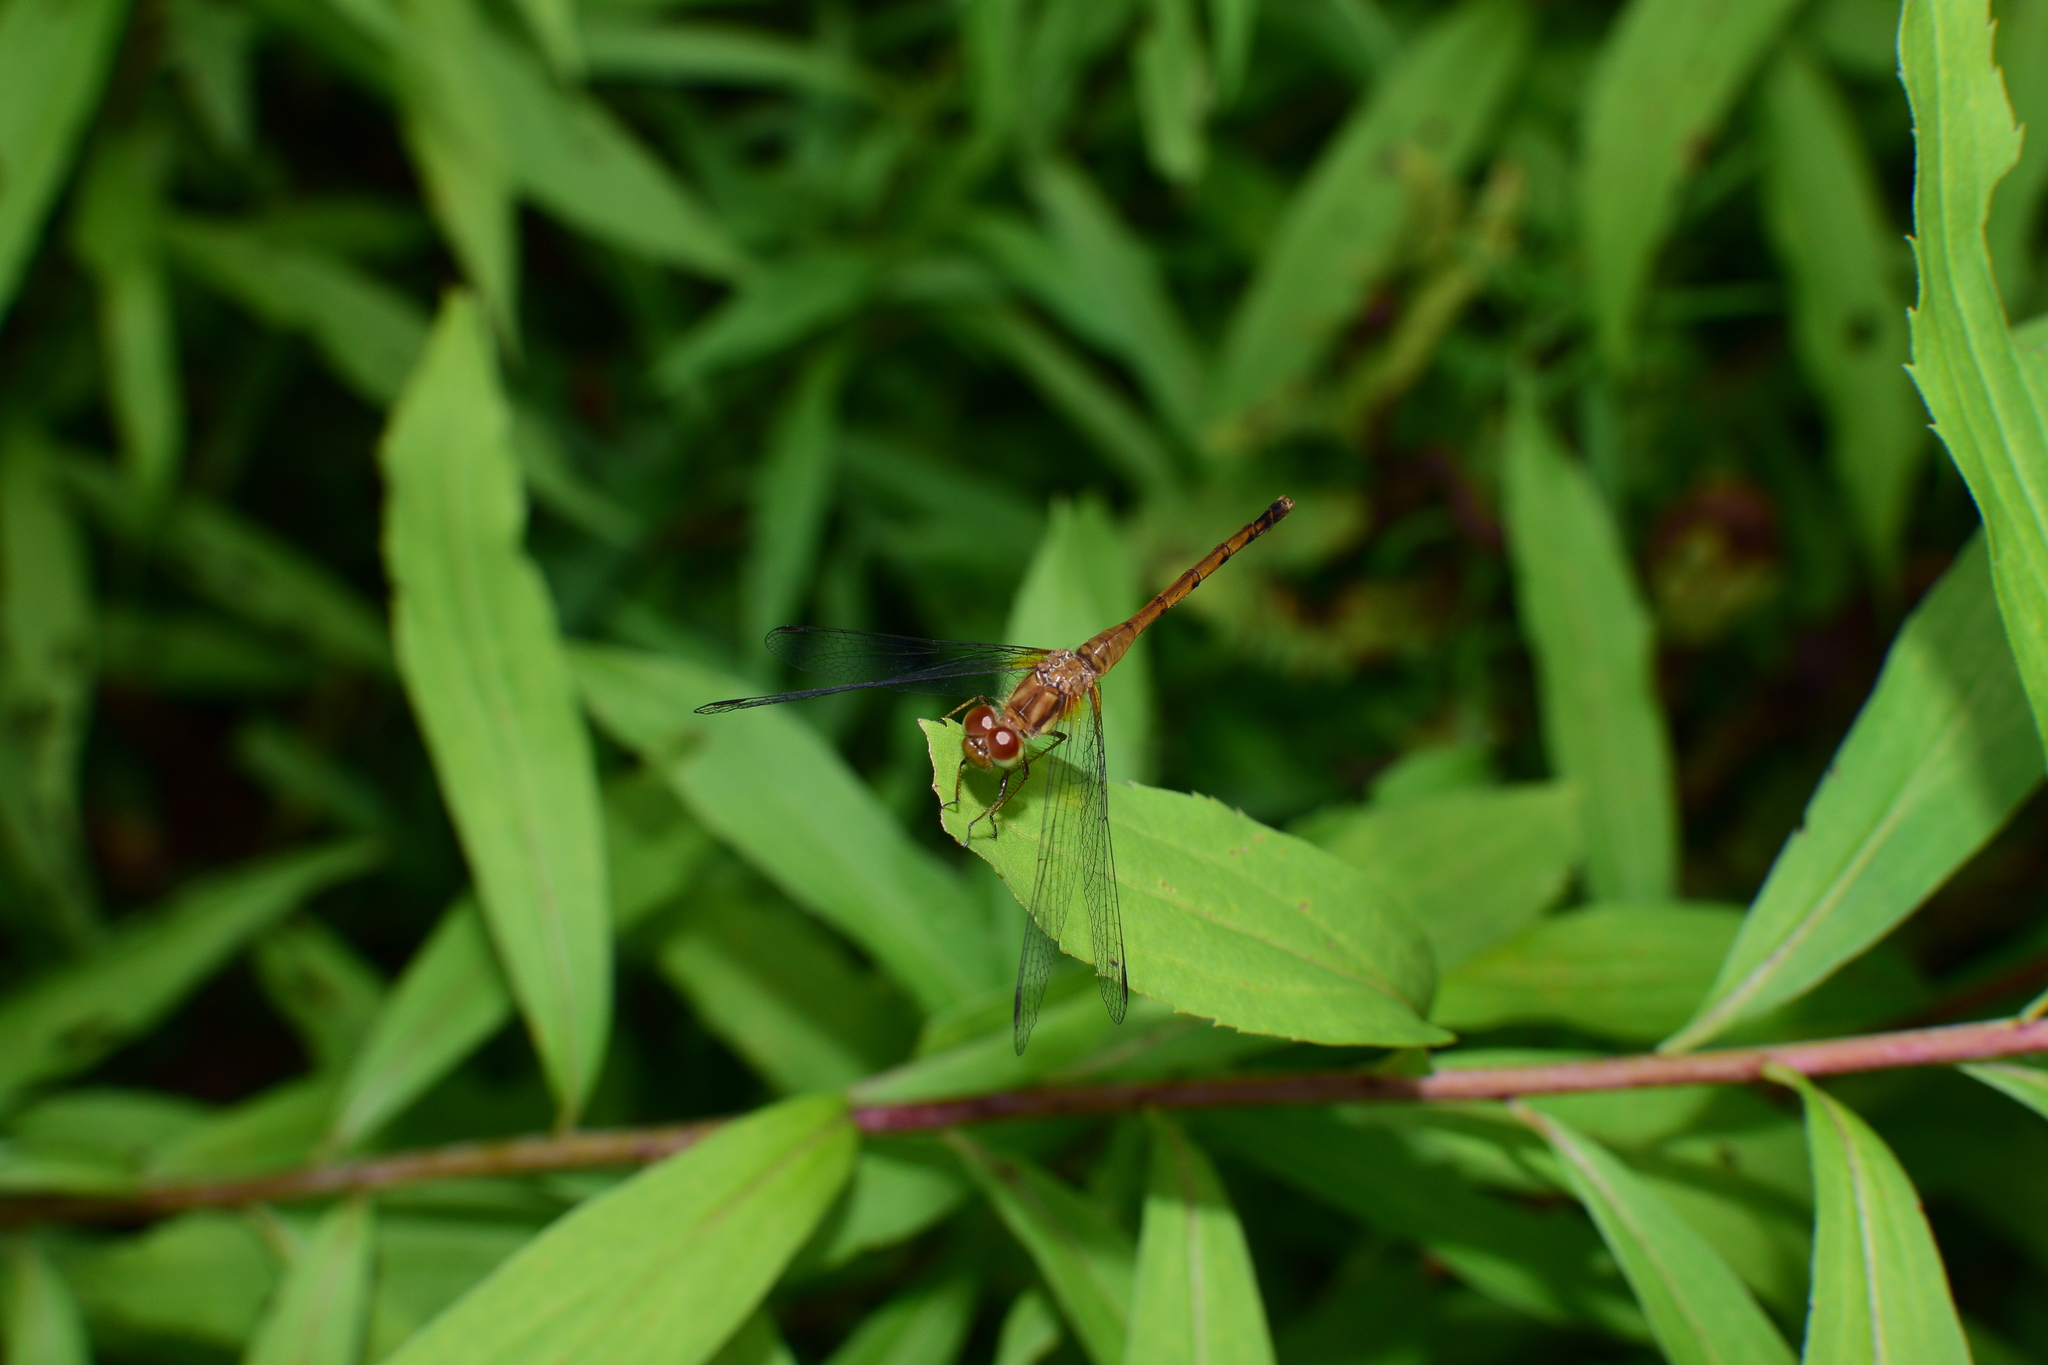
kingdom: Animalia
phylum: Arthropoda
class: Insecta
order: Odonata
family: Libellulidae
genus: Sympetrum
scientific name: Sympetrum vicinum
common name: Autumn meadowhawk
